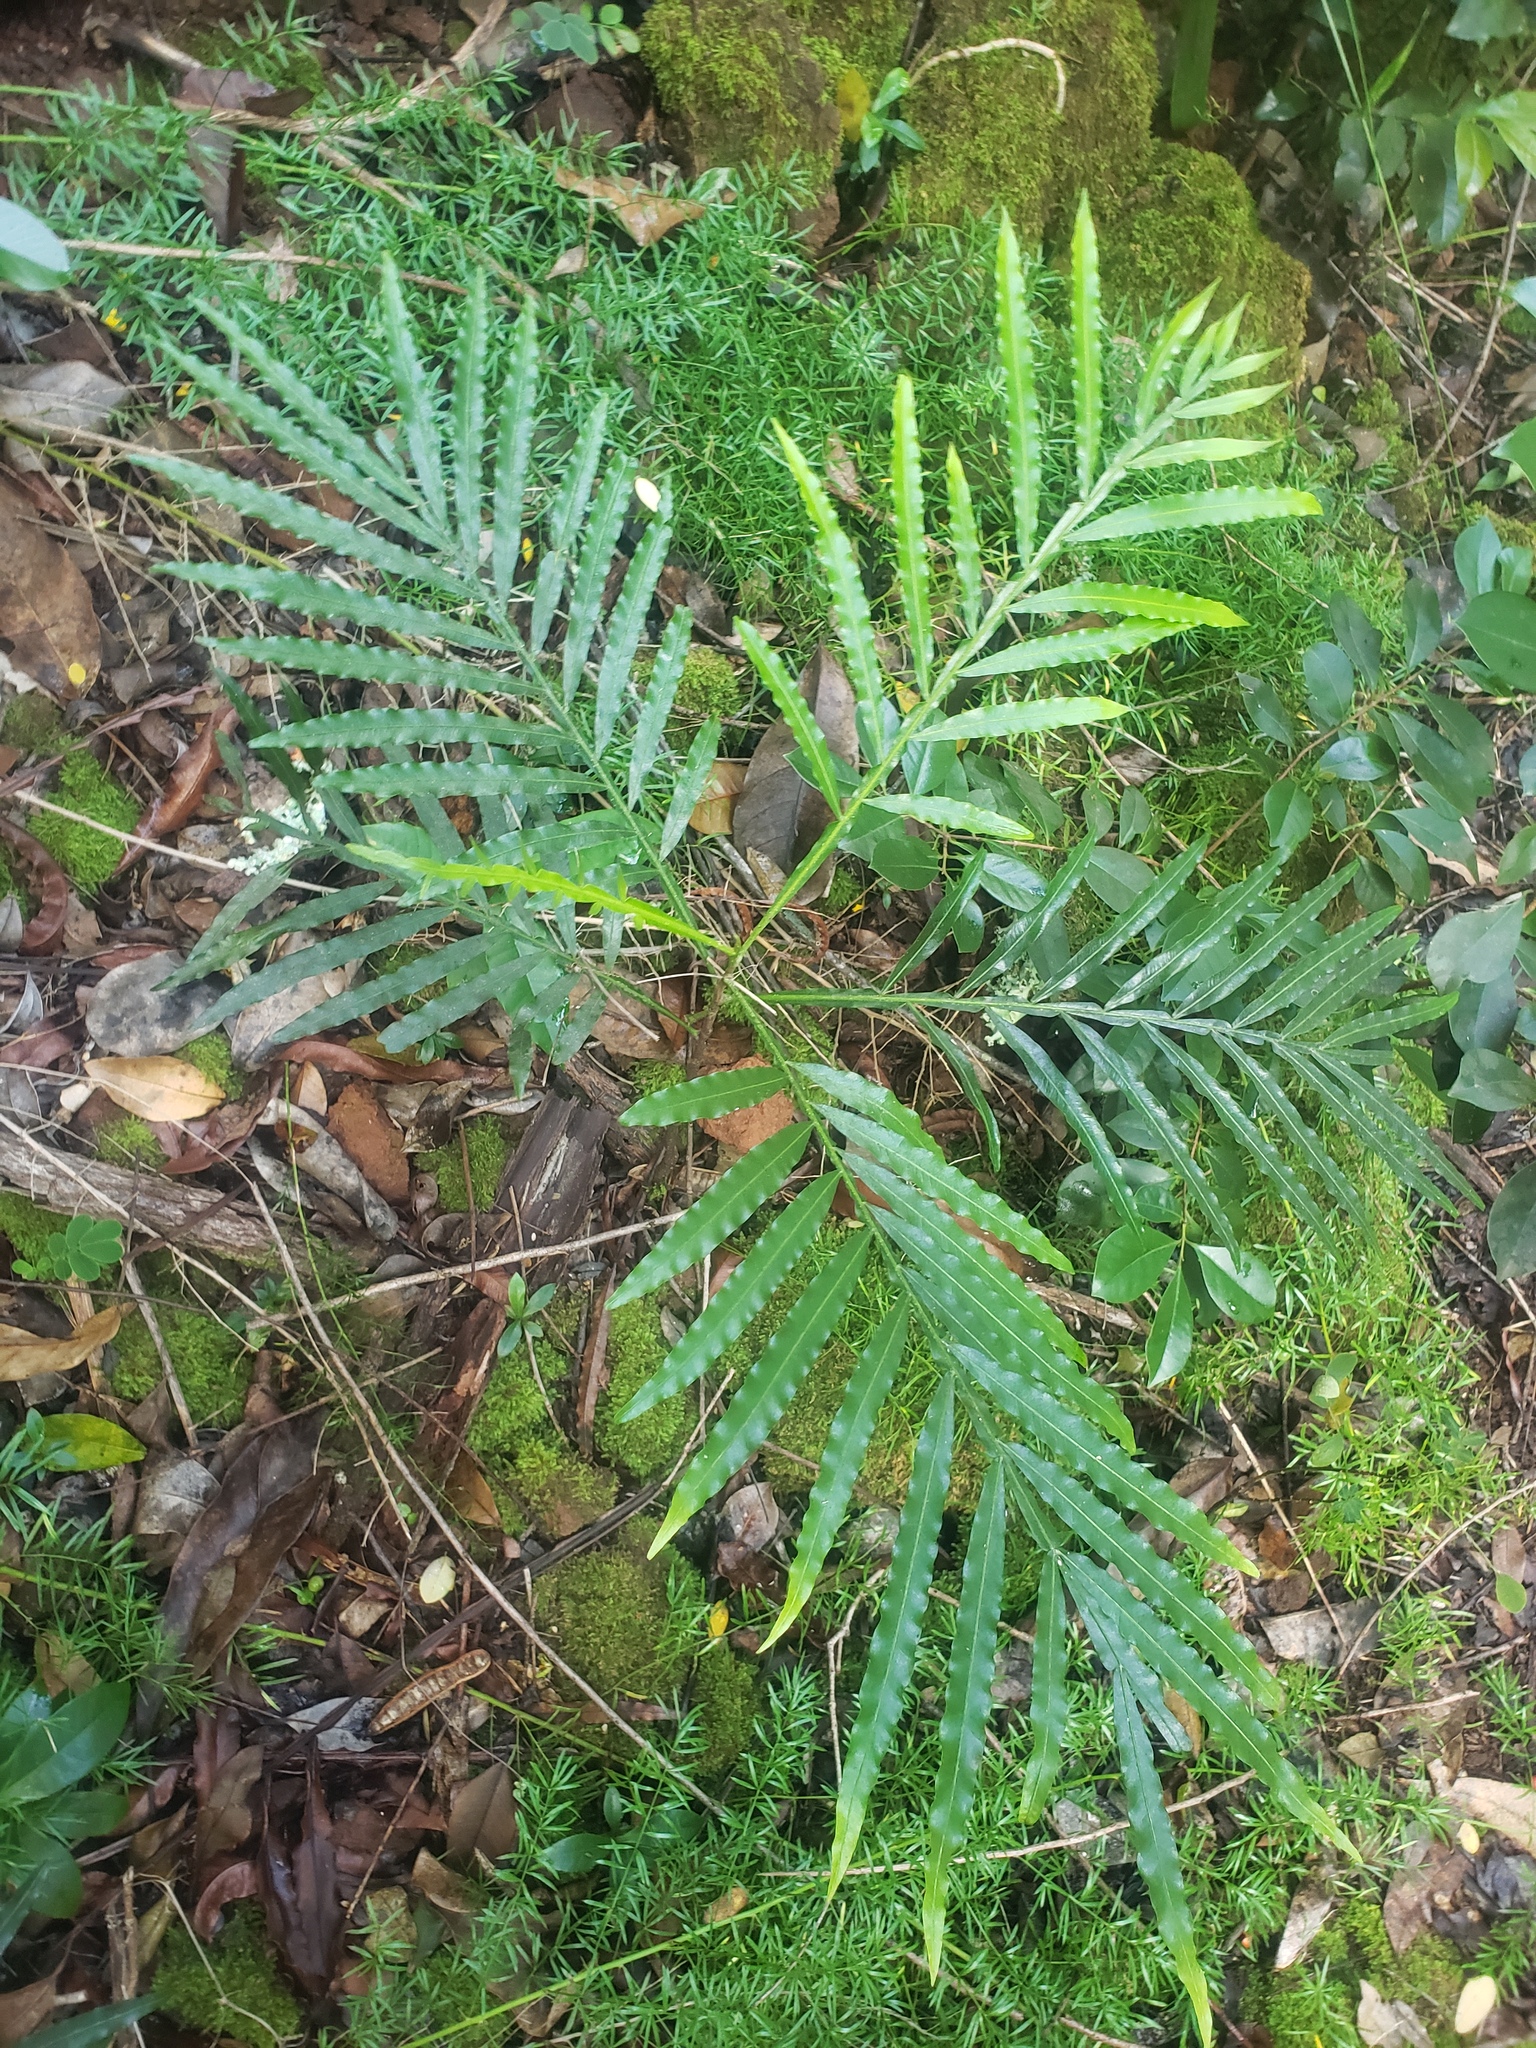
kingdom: Plantae
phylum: Tracheophyta
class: Magnoliopsida
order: Sapindales
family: Sapindaceae
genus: Filicium
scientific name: Filicium decipiens
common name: Ferntree
